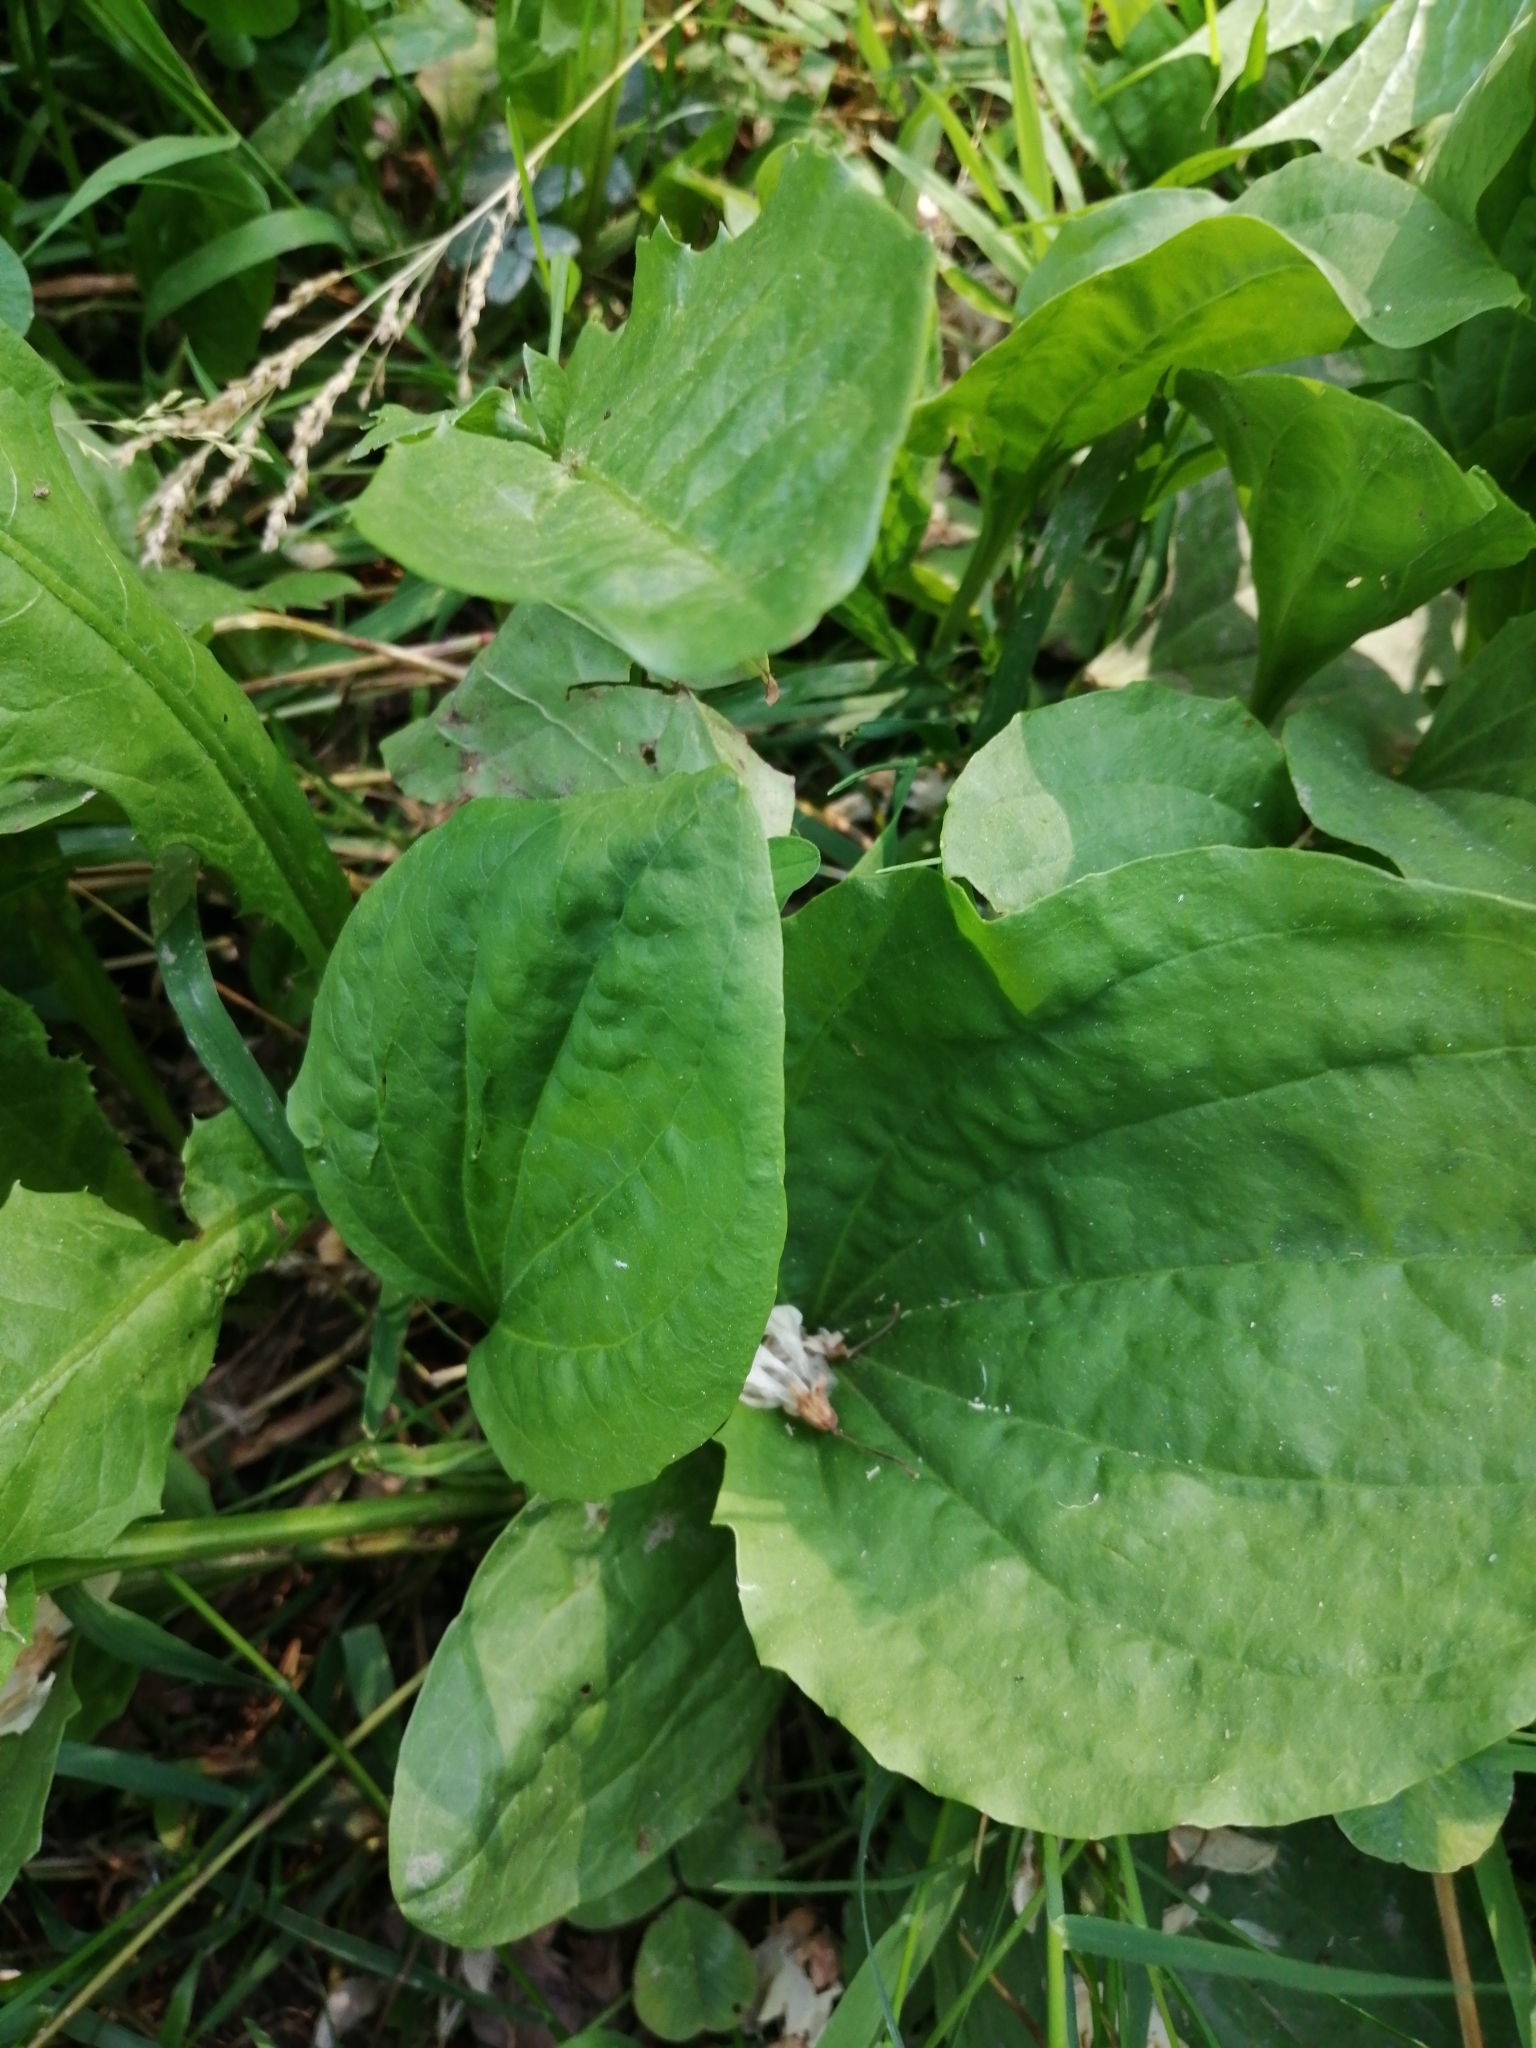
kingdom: Plantae
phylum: Tracheophyta
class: Magnoliopsida
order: Lamiales
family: Plantaginaceae
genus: Plantago
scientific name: Plantago major
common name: Common plantain
